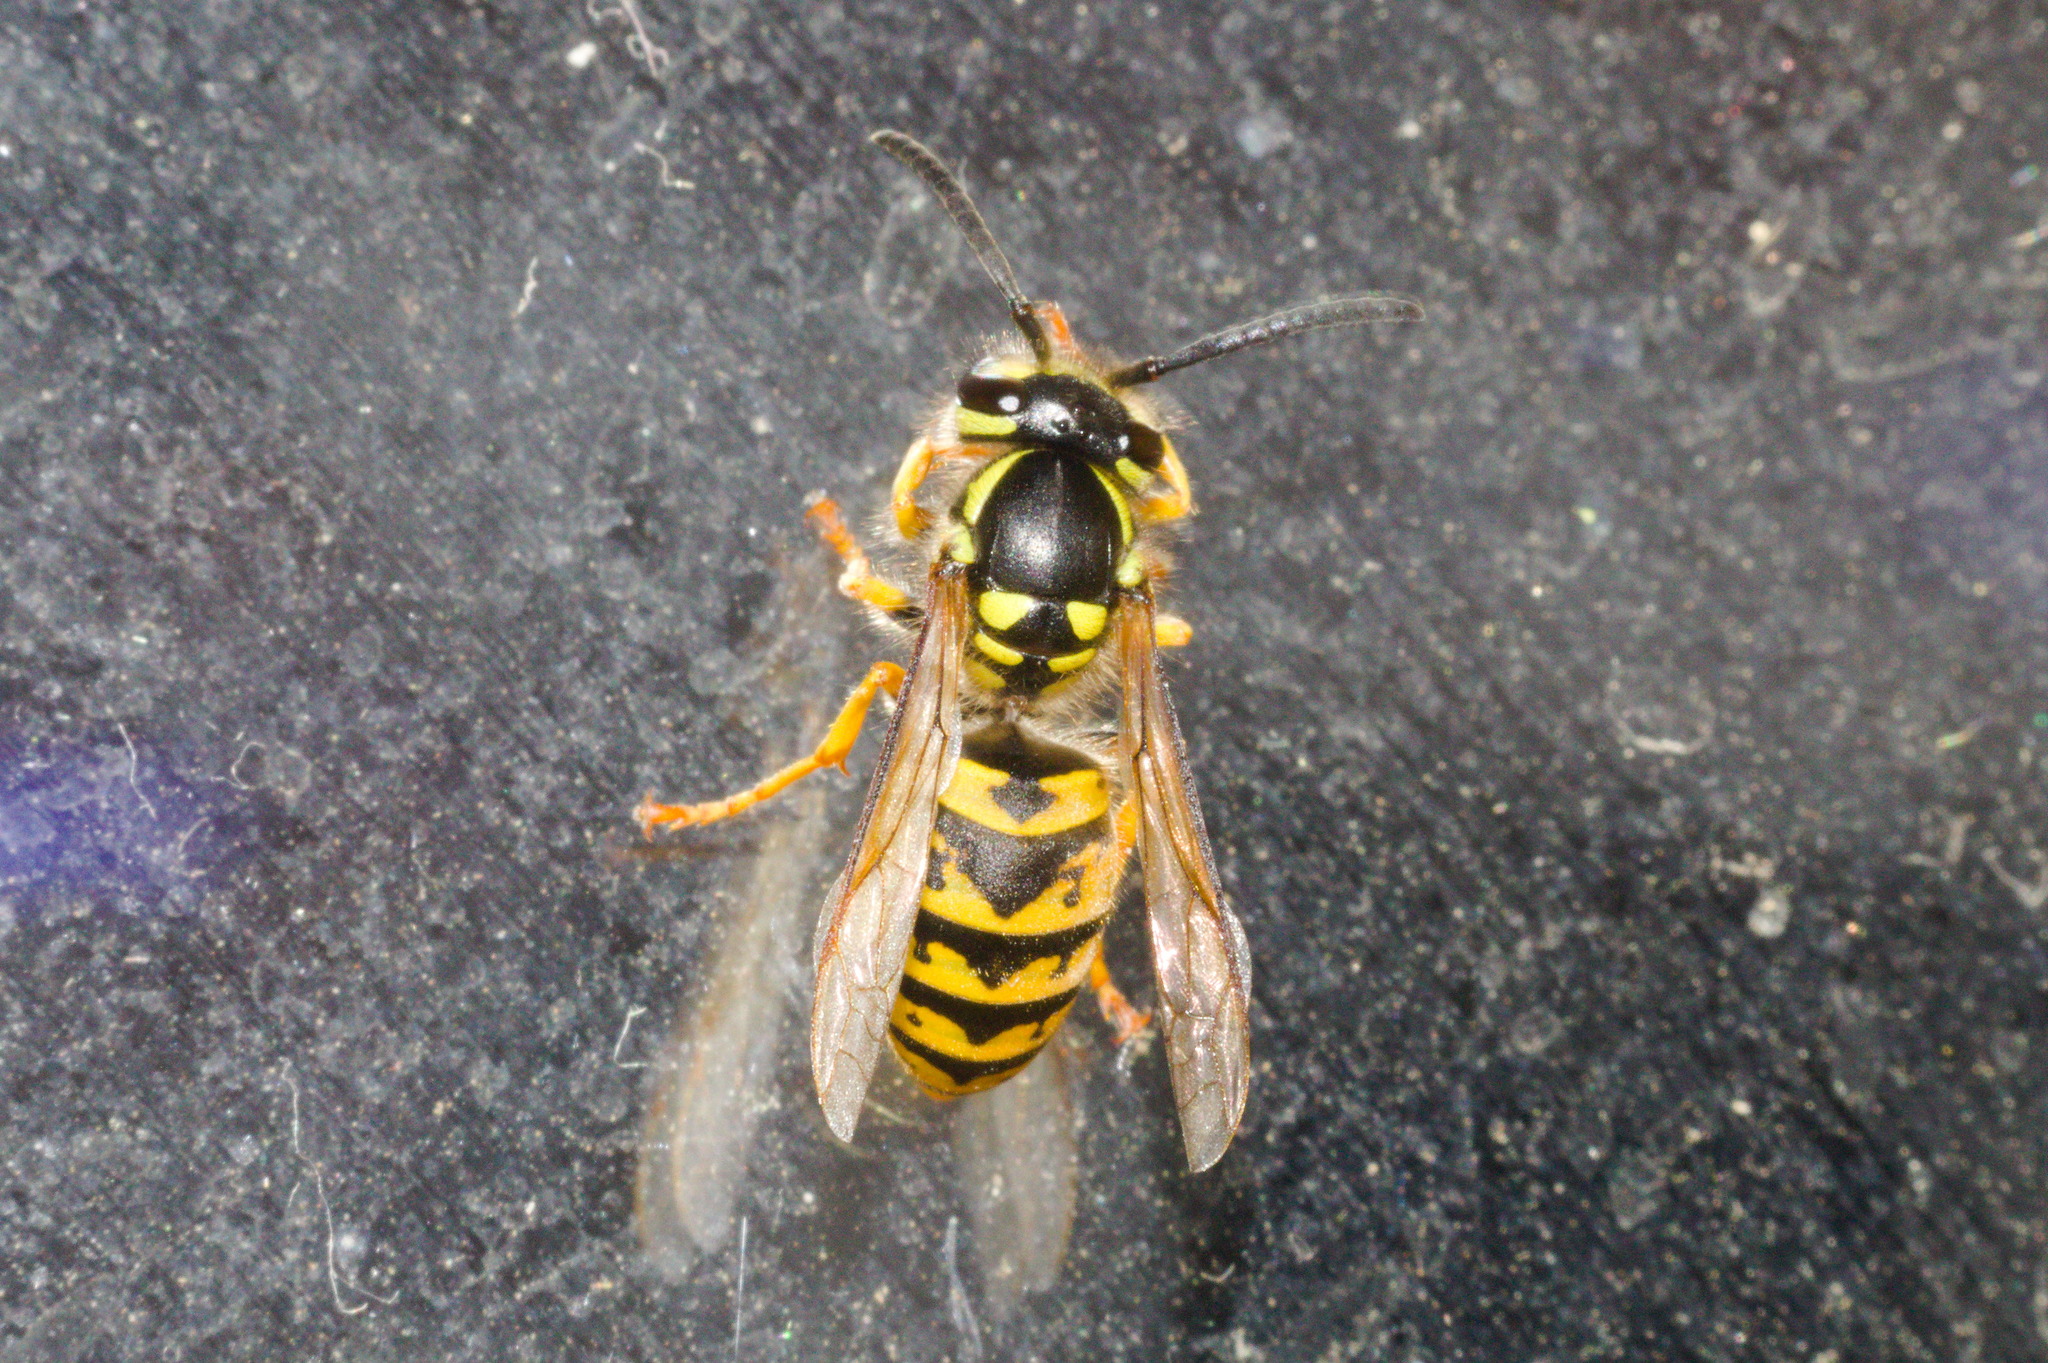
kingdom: Animalia
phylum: Arthropoda
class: Insecta
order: Hymenoptera
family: Vespidae
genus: Vespula
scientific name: Vespula germanica
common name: German wasp
